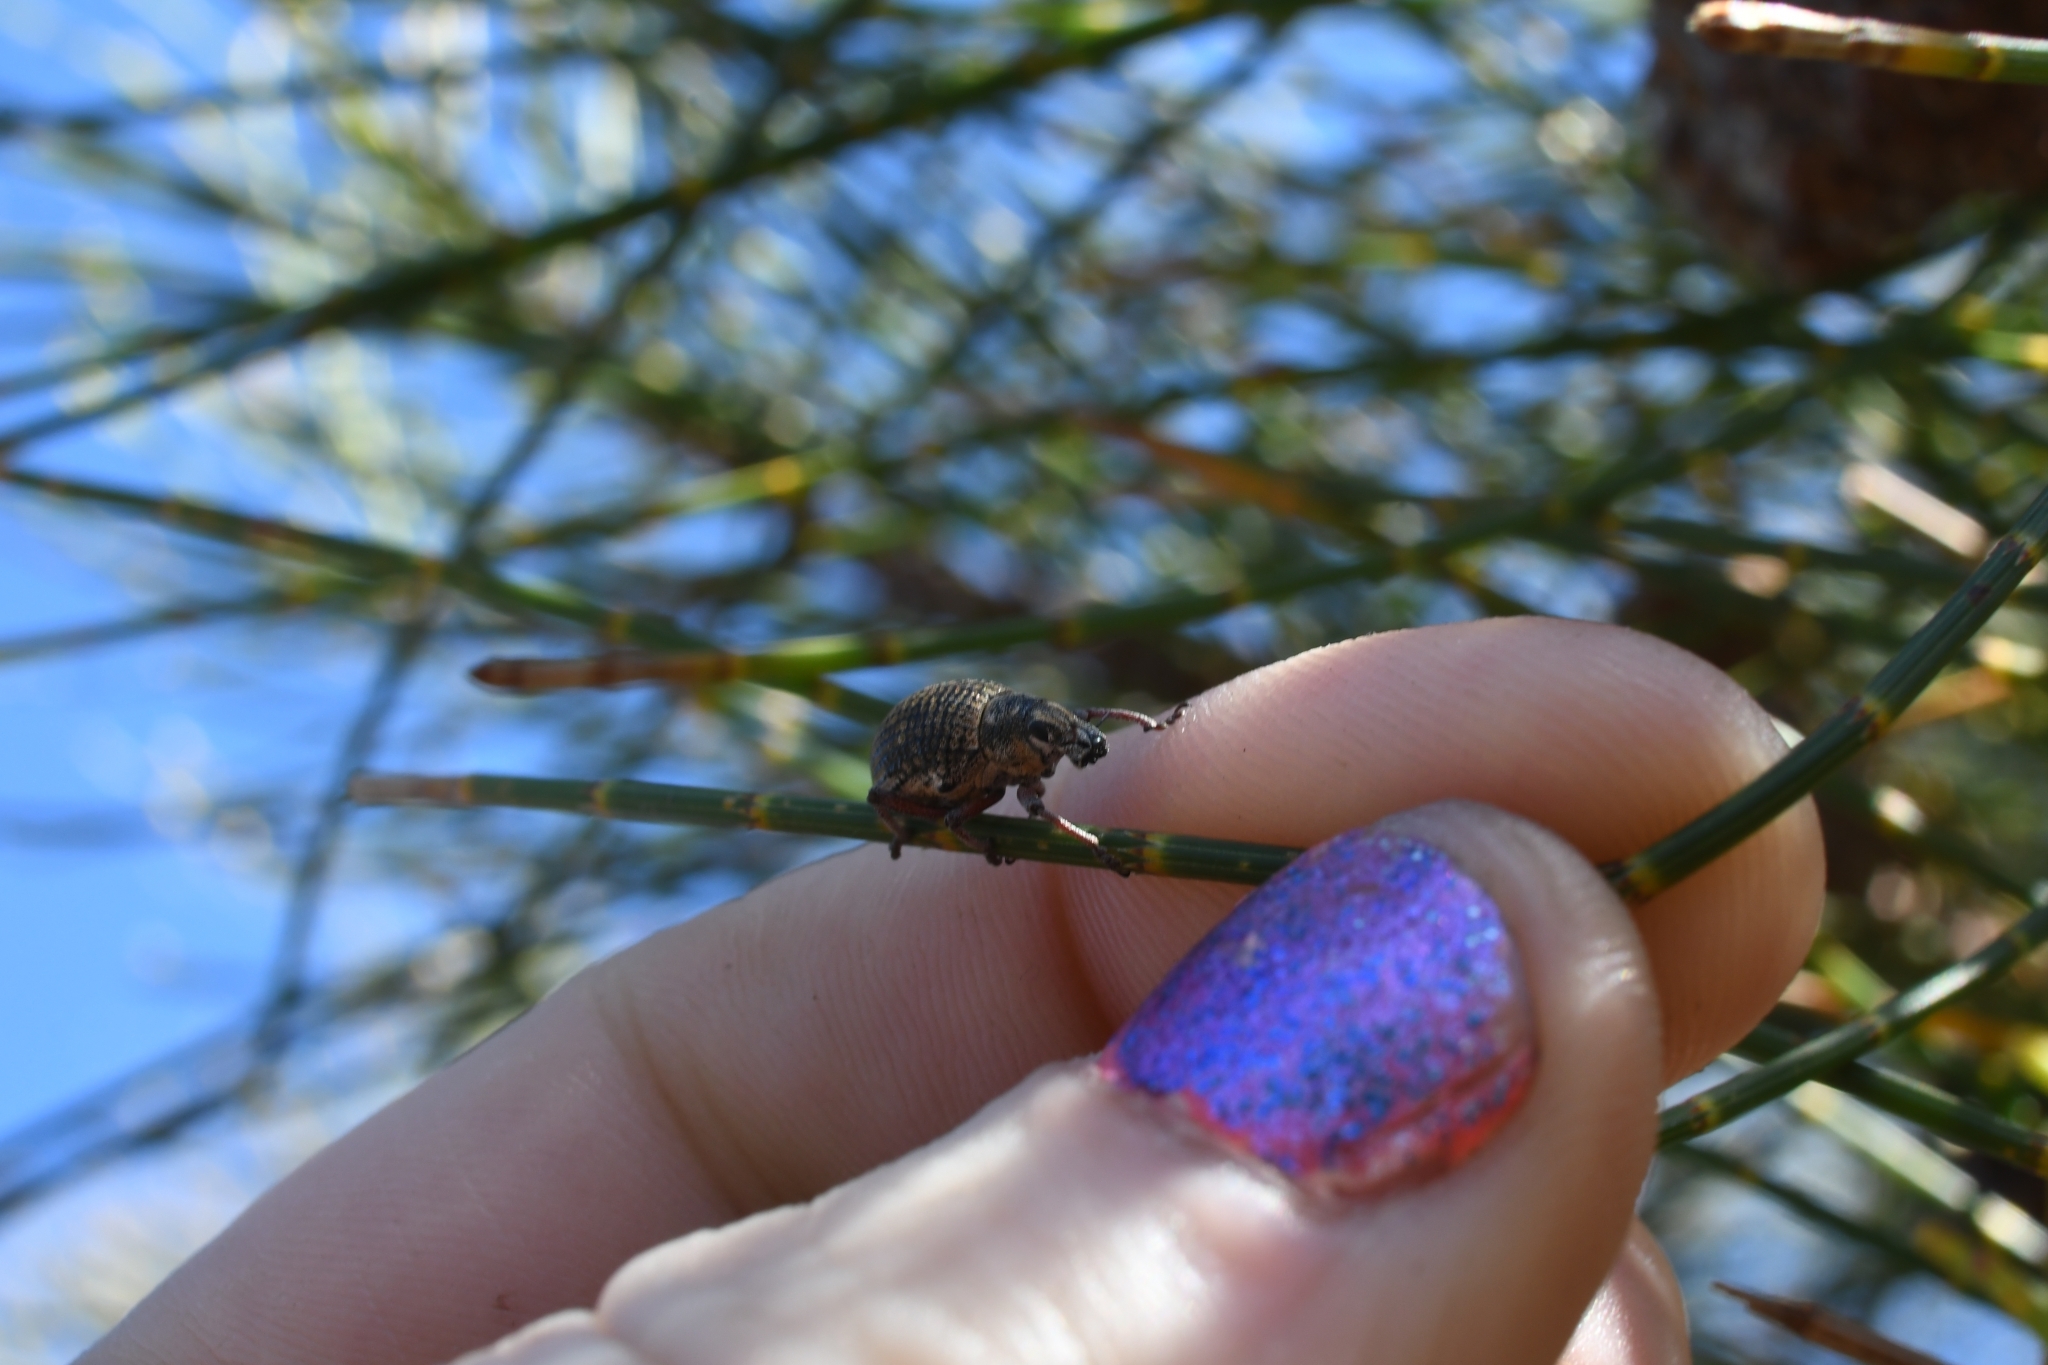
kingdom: Animalia
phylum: Arthropoda
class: Insecta
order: Coleoptera
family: Curculionidae
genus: Catasarcus
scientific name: Catasarcus rugulosus
